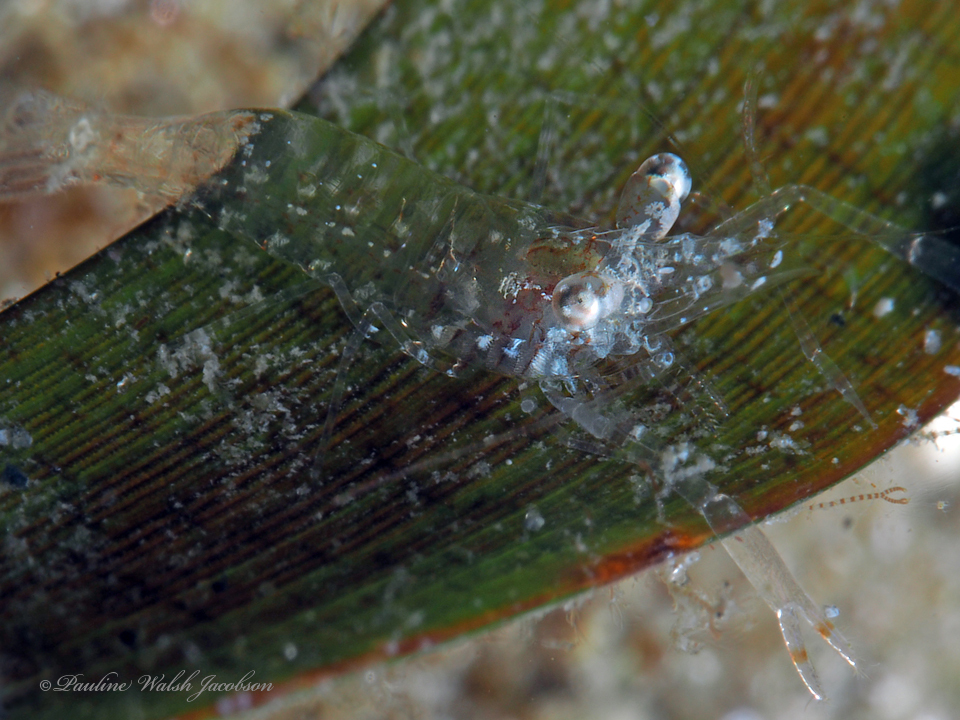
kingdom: Animalia
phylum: Arthropoda
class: Malacostraca
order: Decapoda
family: Palaemonidae
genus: Palaemonella
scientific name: Palaemonella
